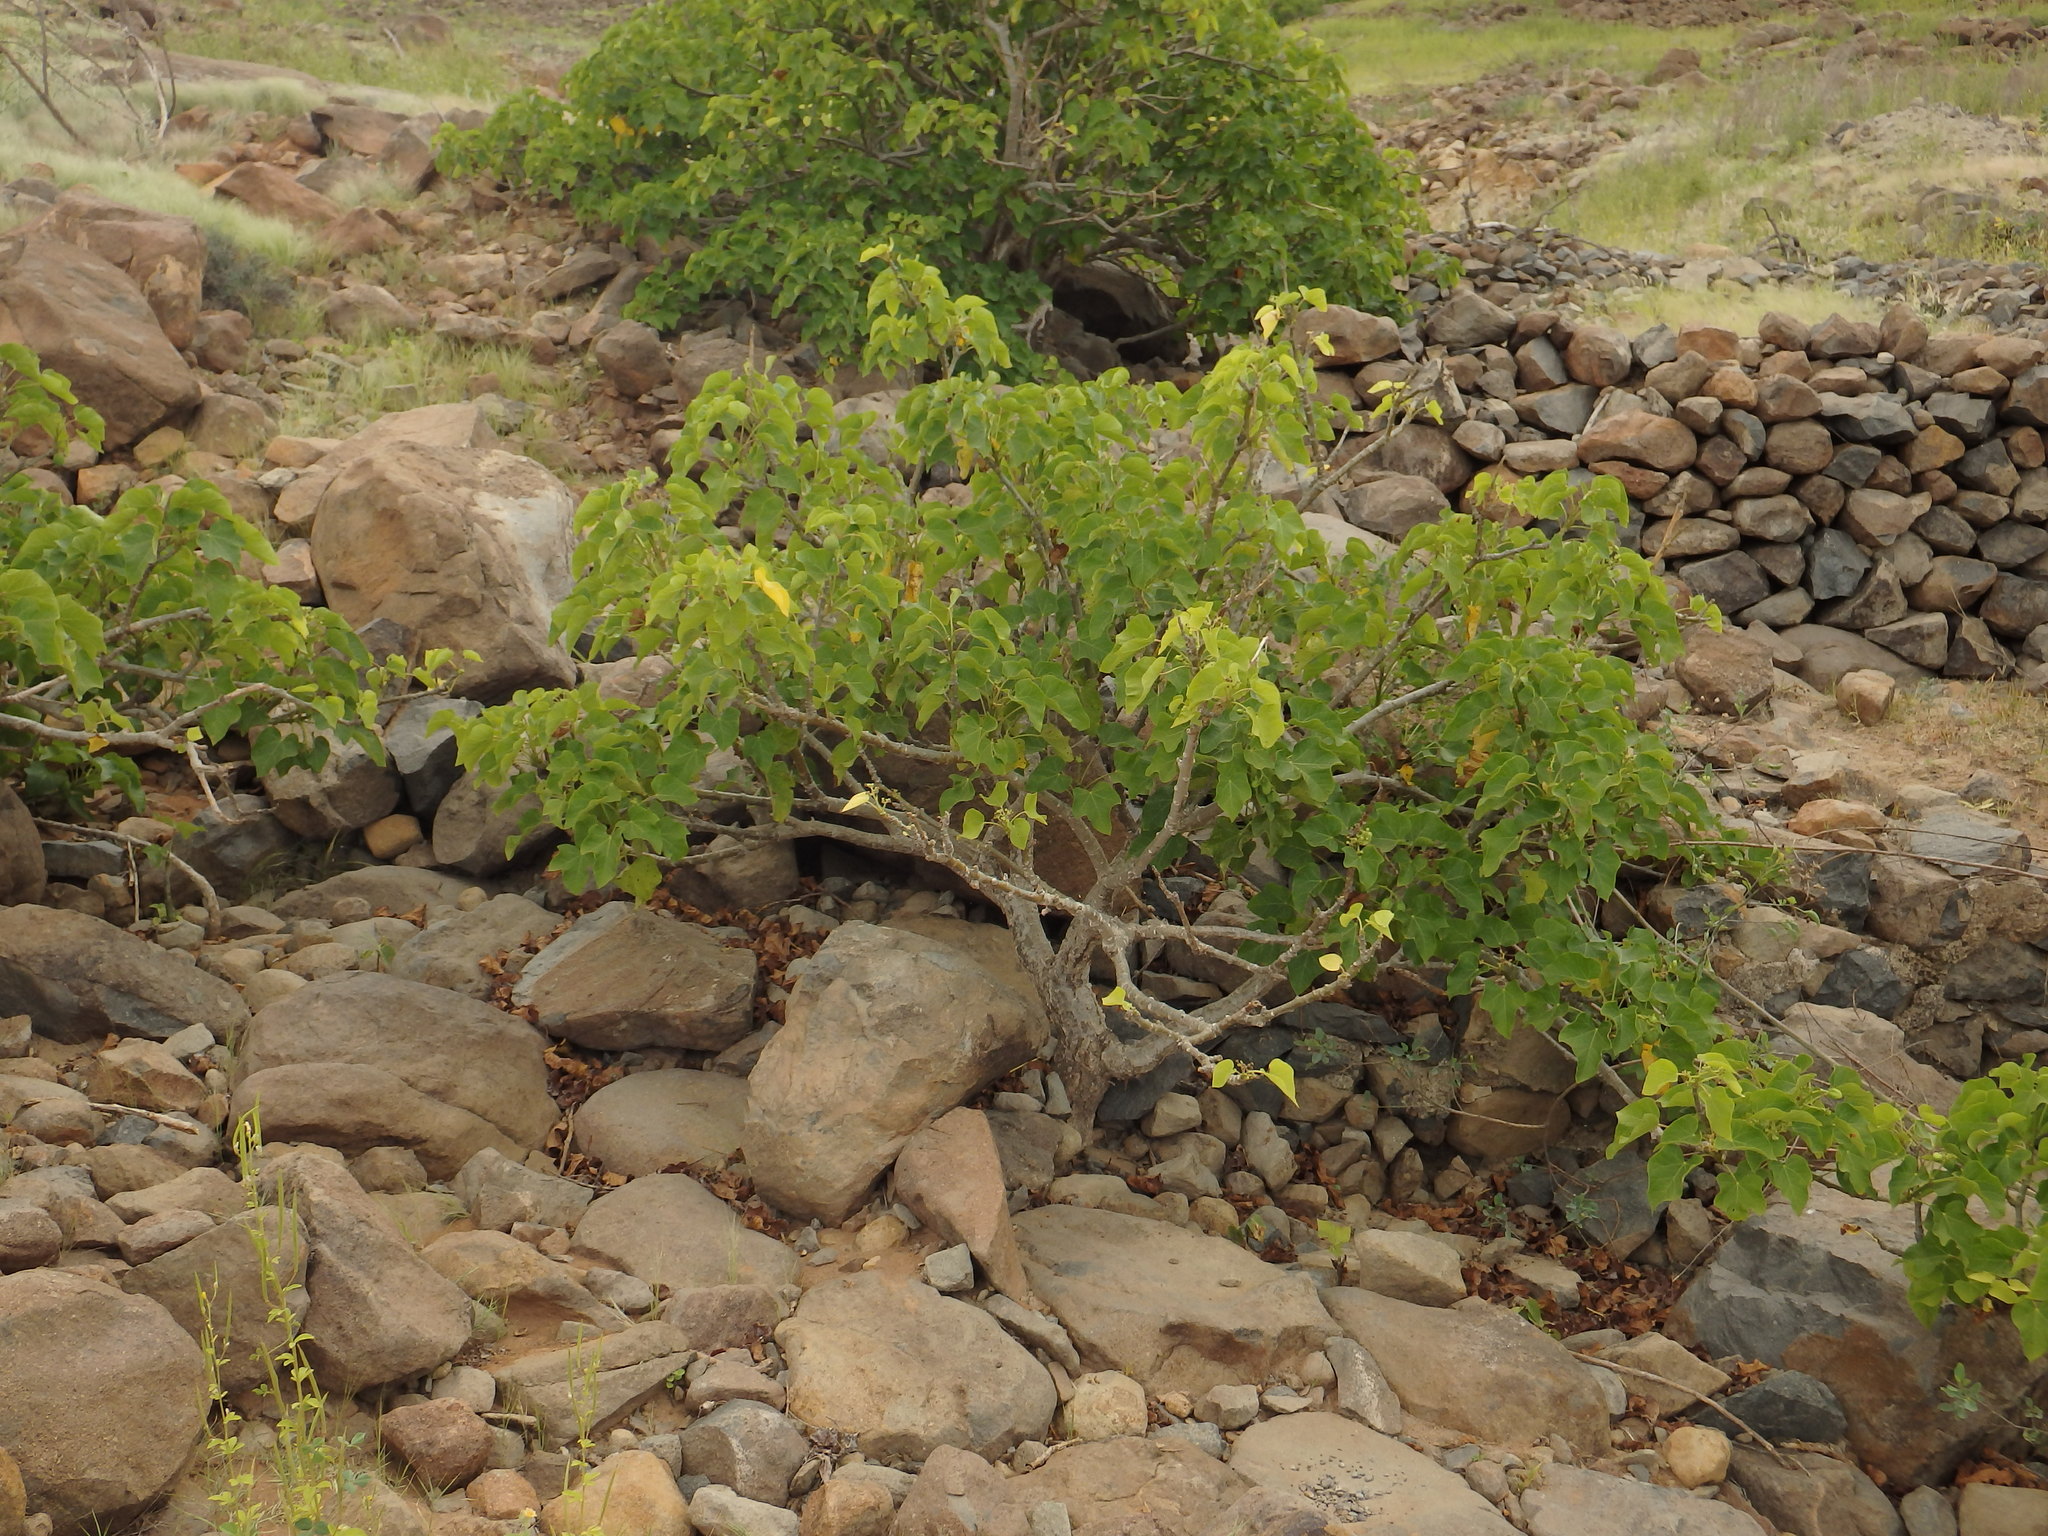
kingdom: Plantae
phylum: Tracheophyta
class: Magnoliopsida
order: Malpighiales
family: Euphorbiaceae
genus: Jatropha
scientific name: Jatropha curcas
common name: Barbados nut
